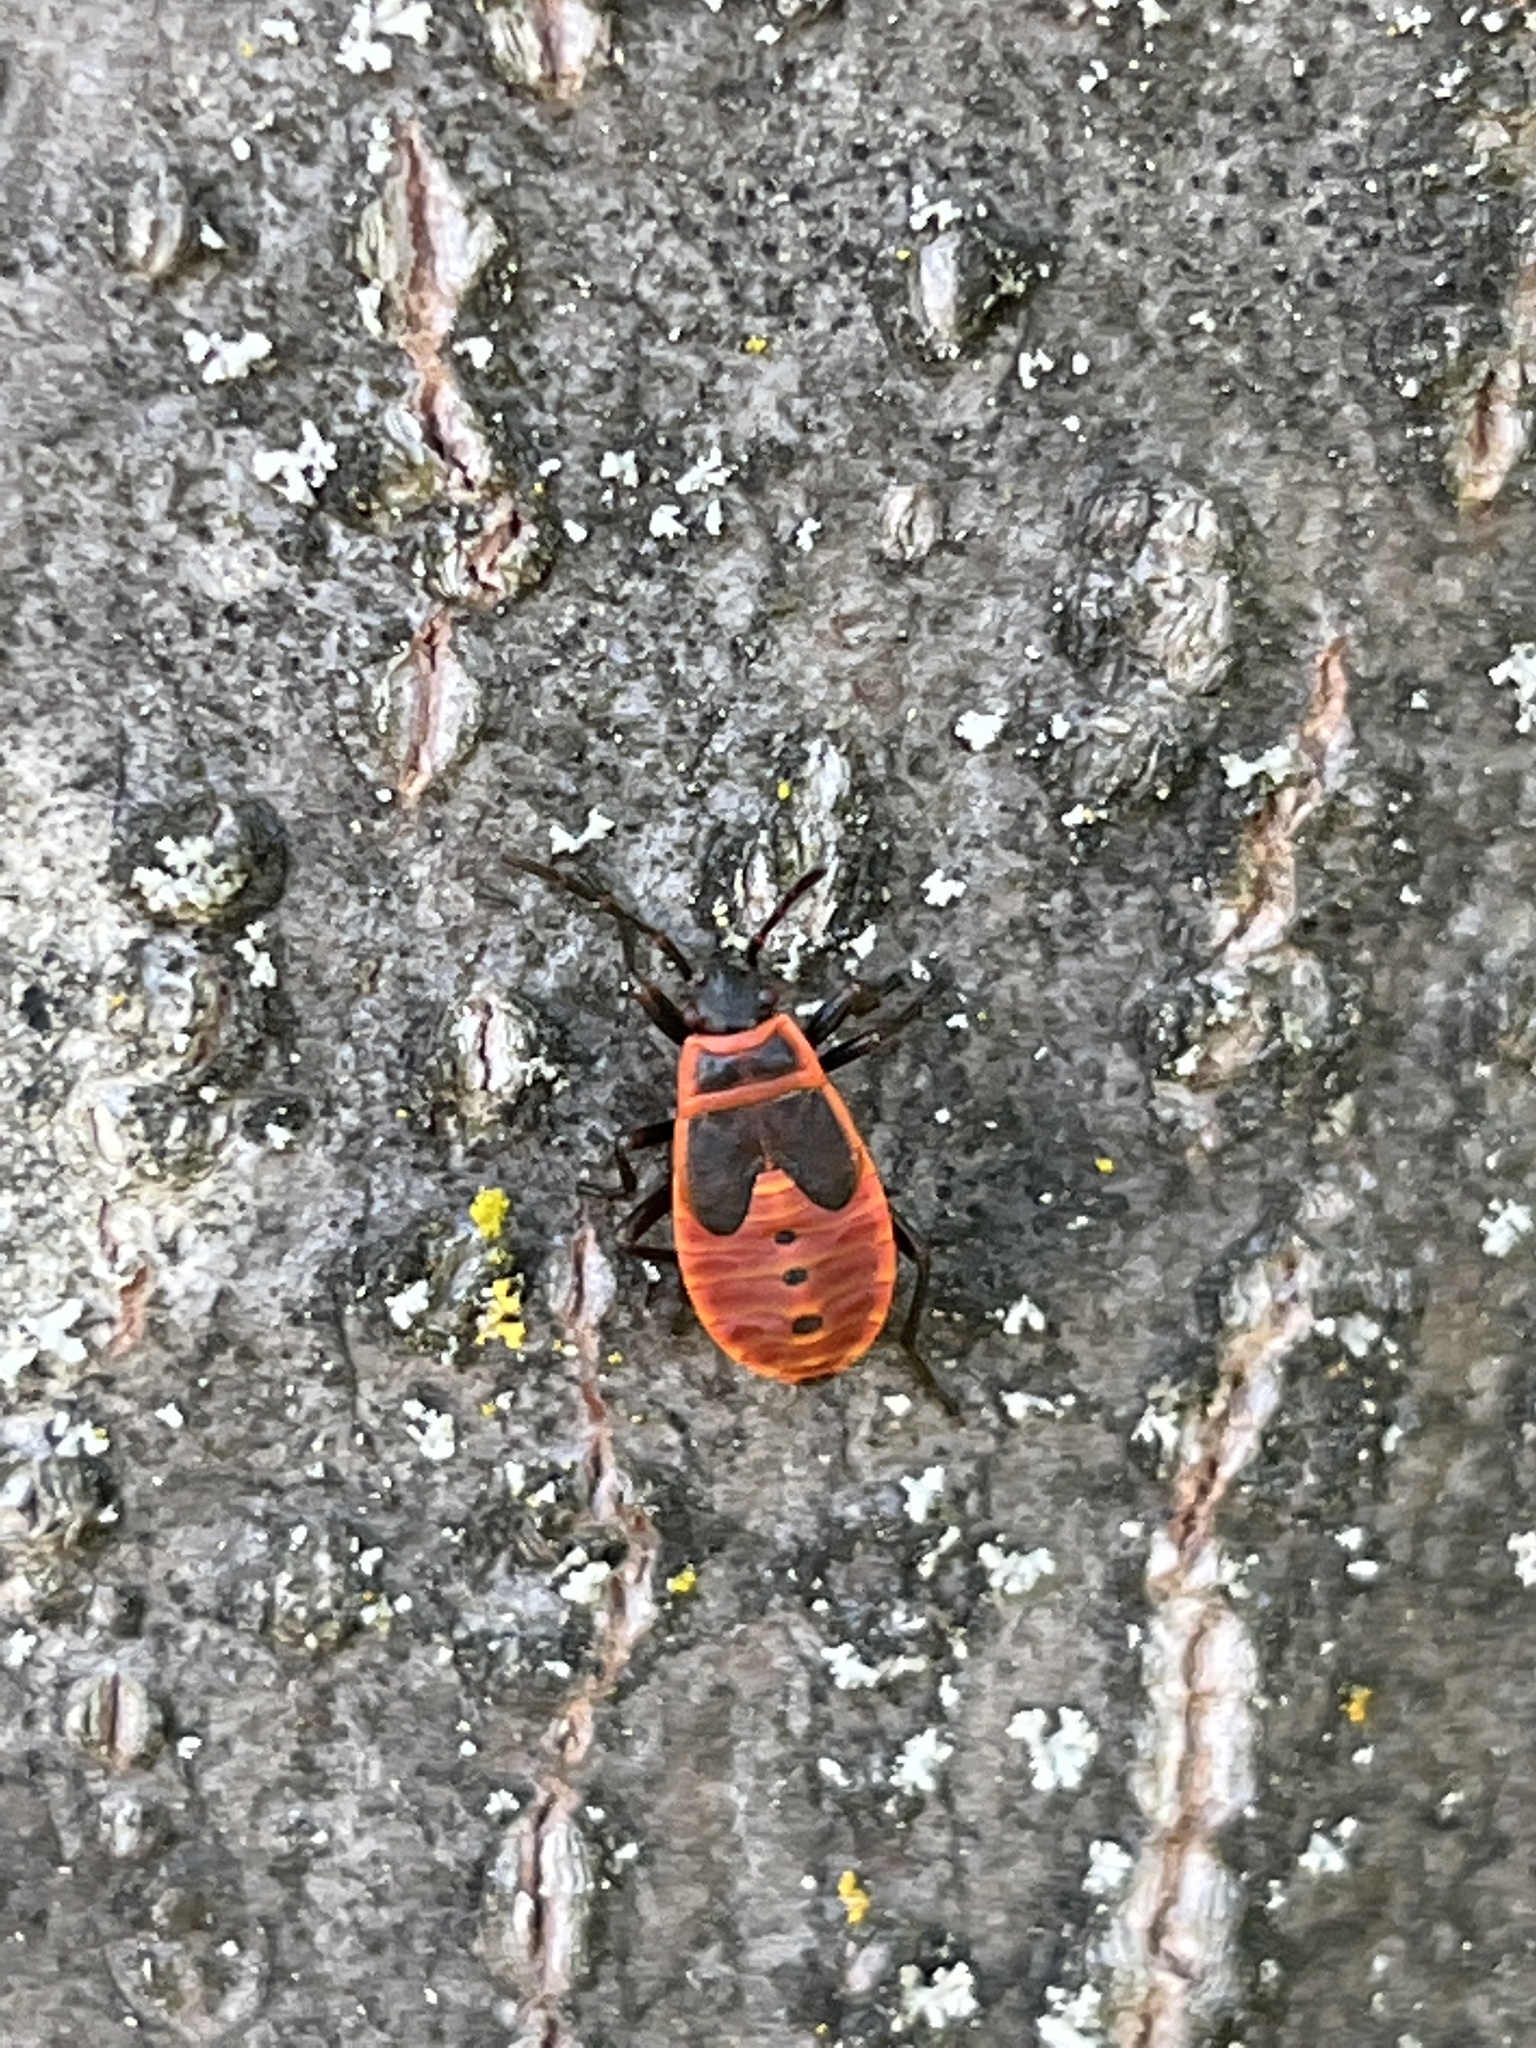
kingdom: Animalia
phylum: Arthropoda
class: Insecta
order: Hemiptera
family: Pyrrhocoridae
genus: Pyrrhocoris
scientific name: Pyrrhocoris apterus
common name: Firebug
